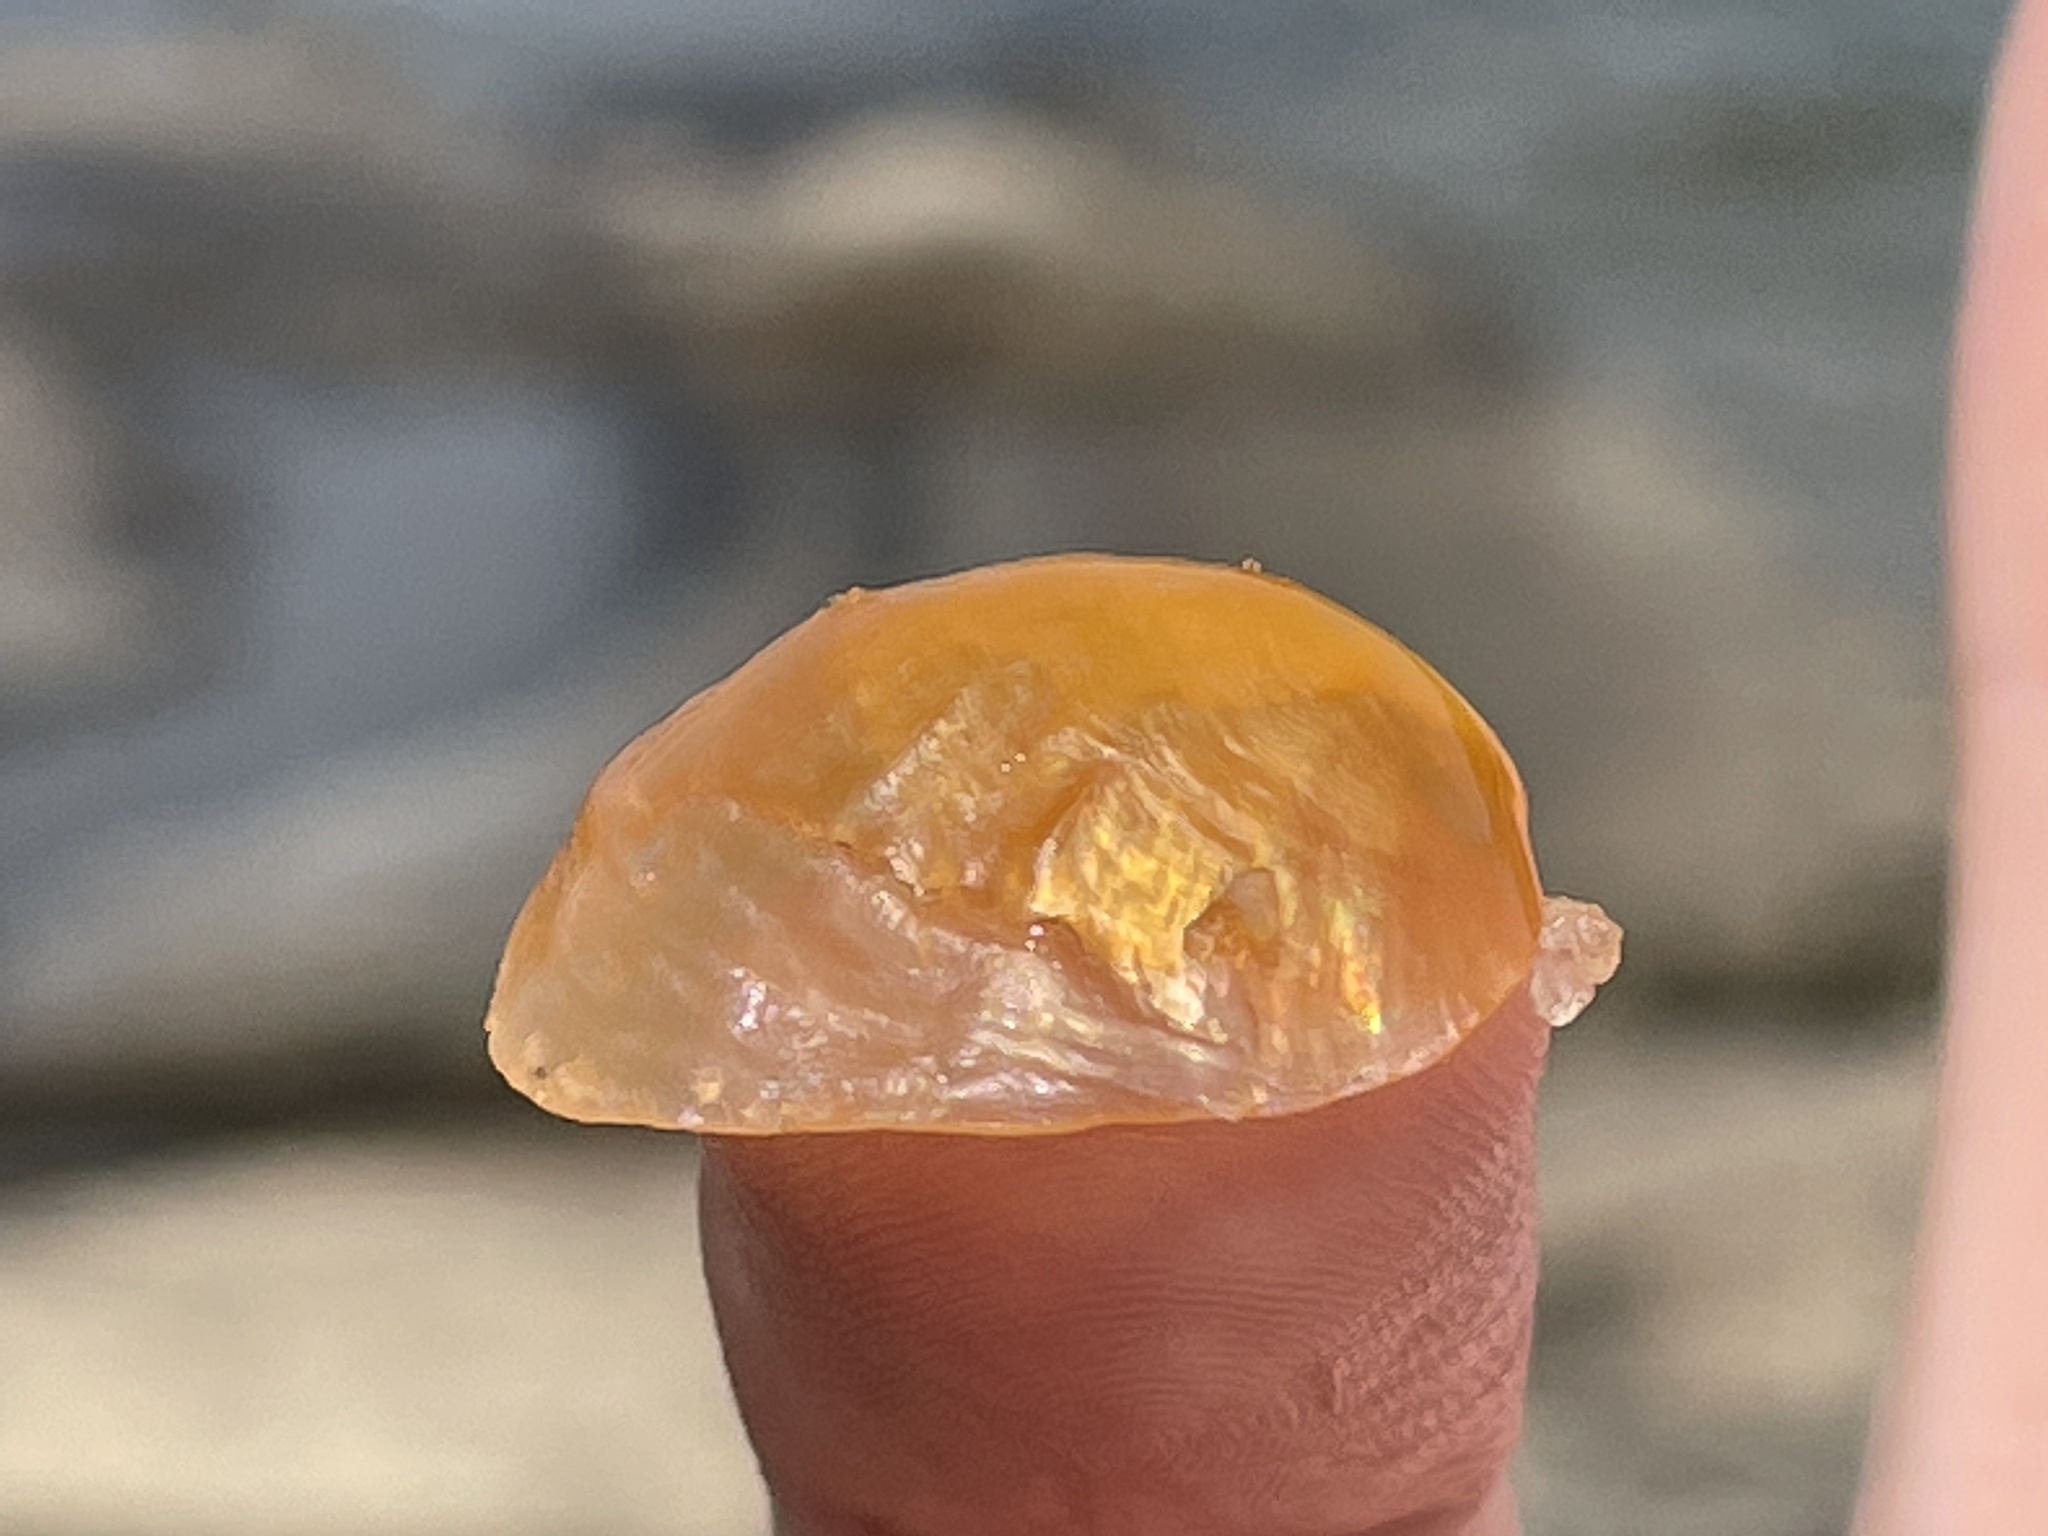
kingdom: Animalia
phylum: Mollusca
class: Bivalvia
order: Pectinida
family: Anomiidae
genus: Anomia
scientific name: Anomia simplex
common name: Common jingle shell
